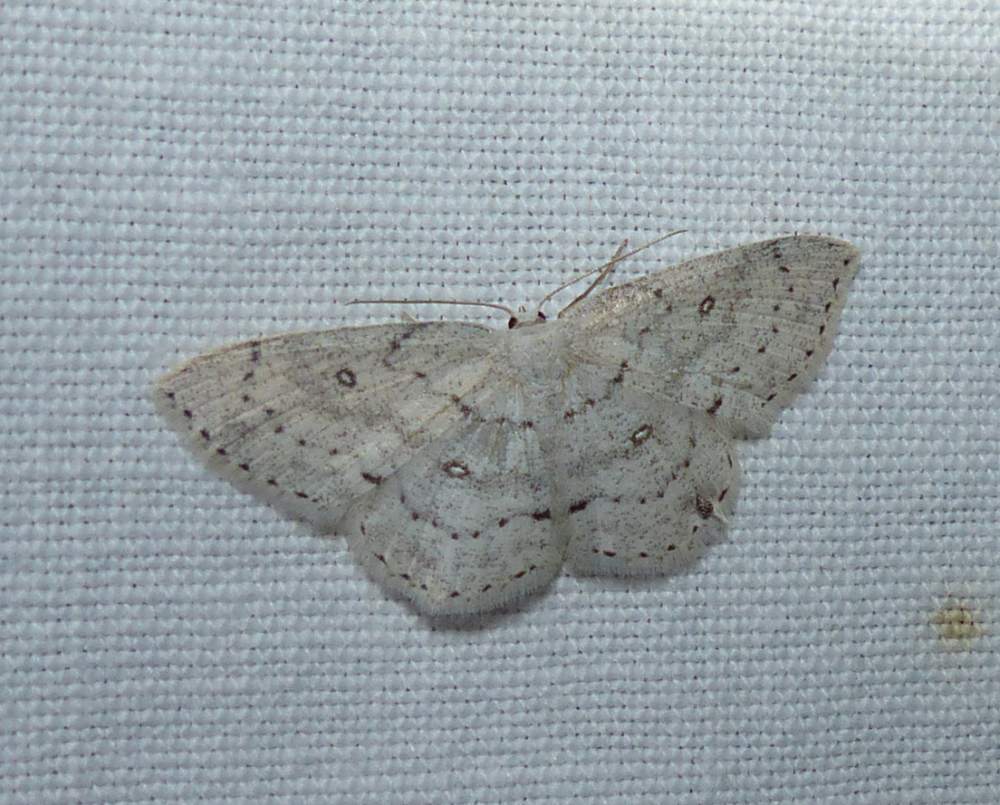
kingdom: Animalia
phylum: Arthropoda
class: Insecta
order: Lepidoptera
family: Geometridae
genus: Cyclophora
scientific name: Cyclophora pendulinaria
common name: Sweet fern geometer
